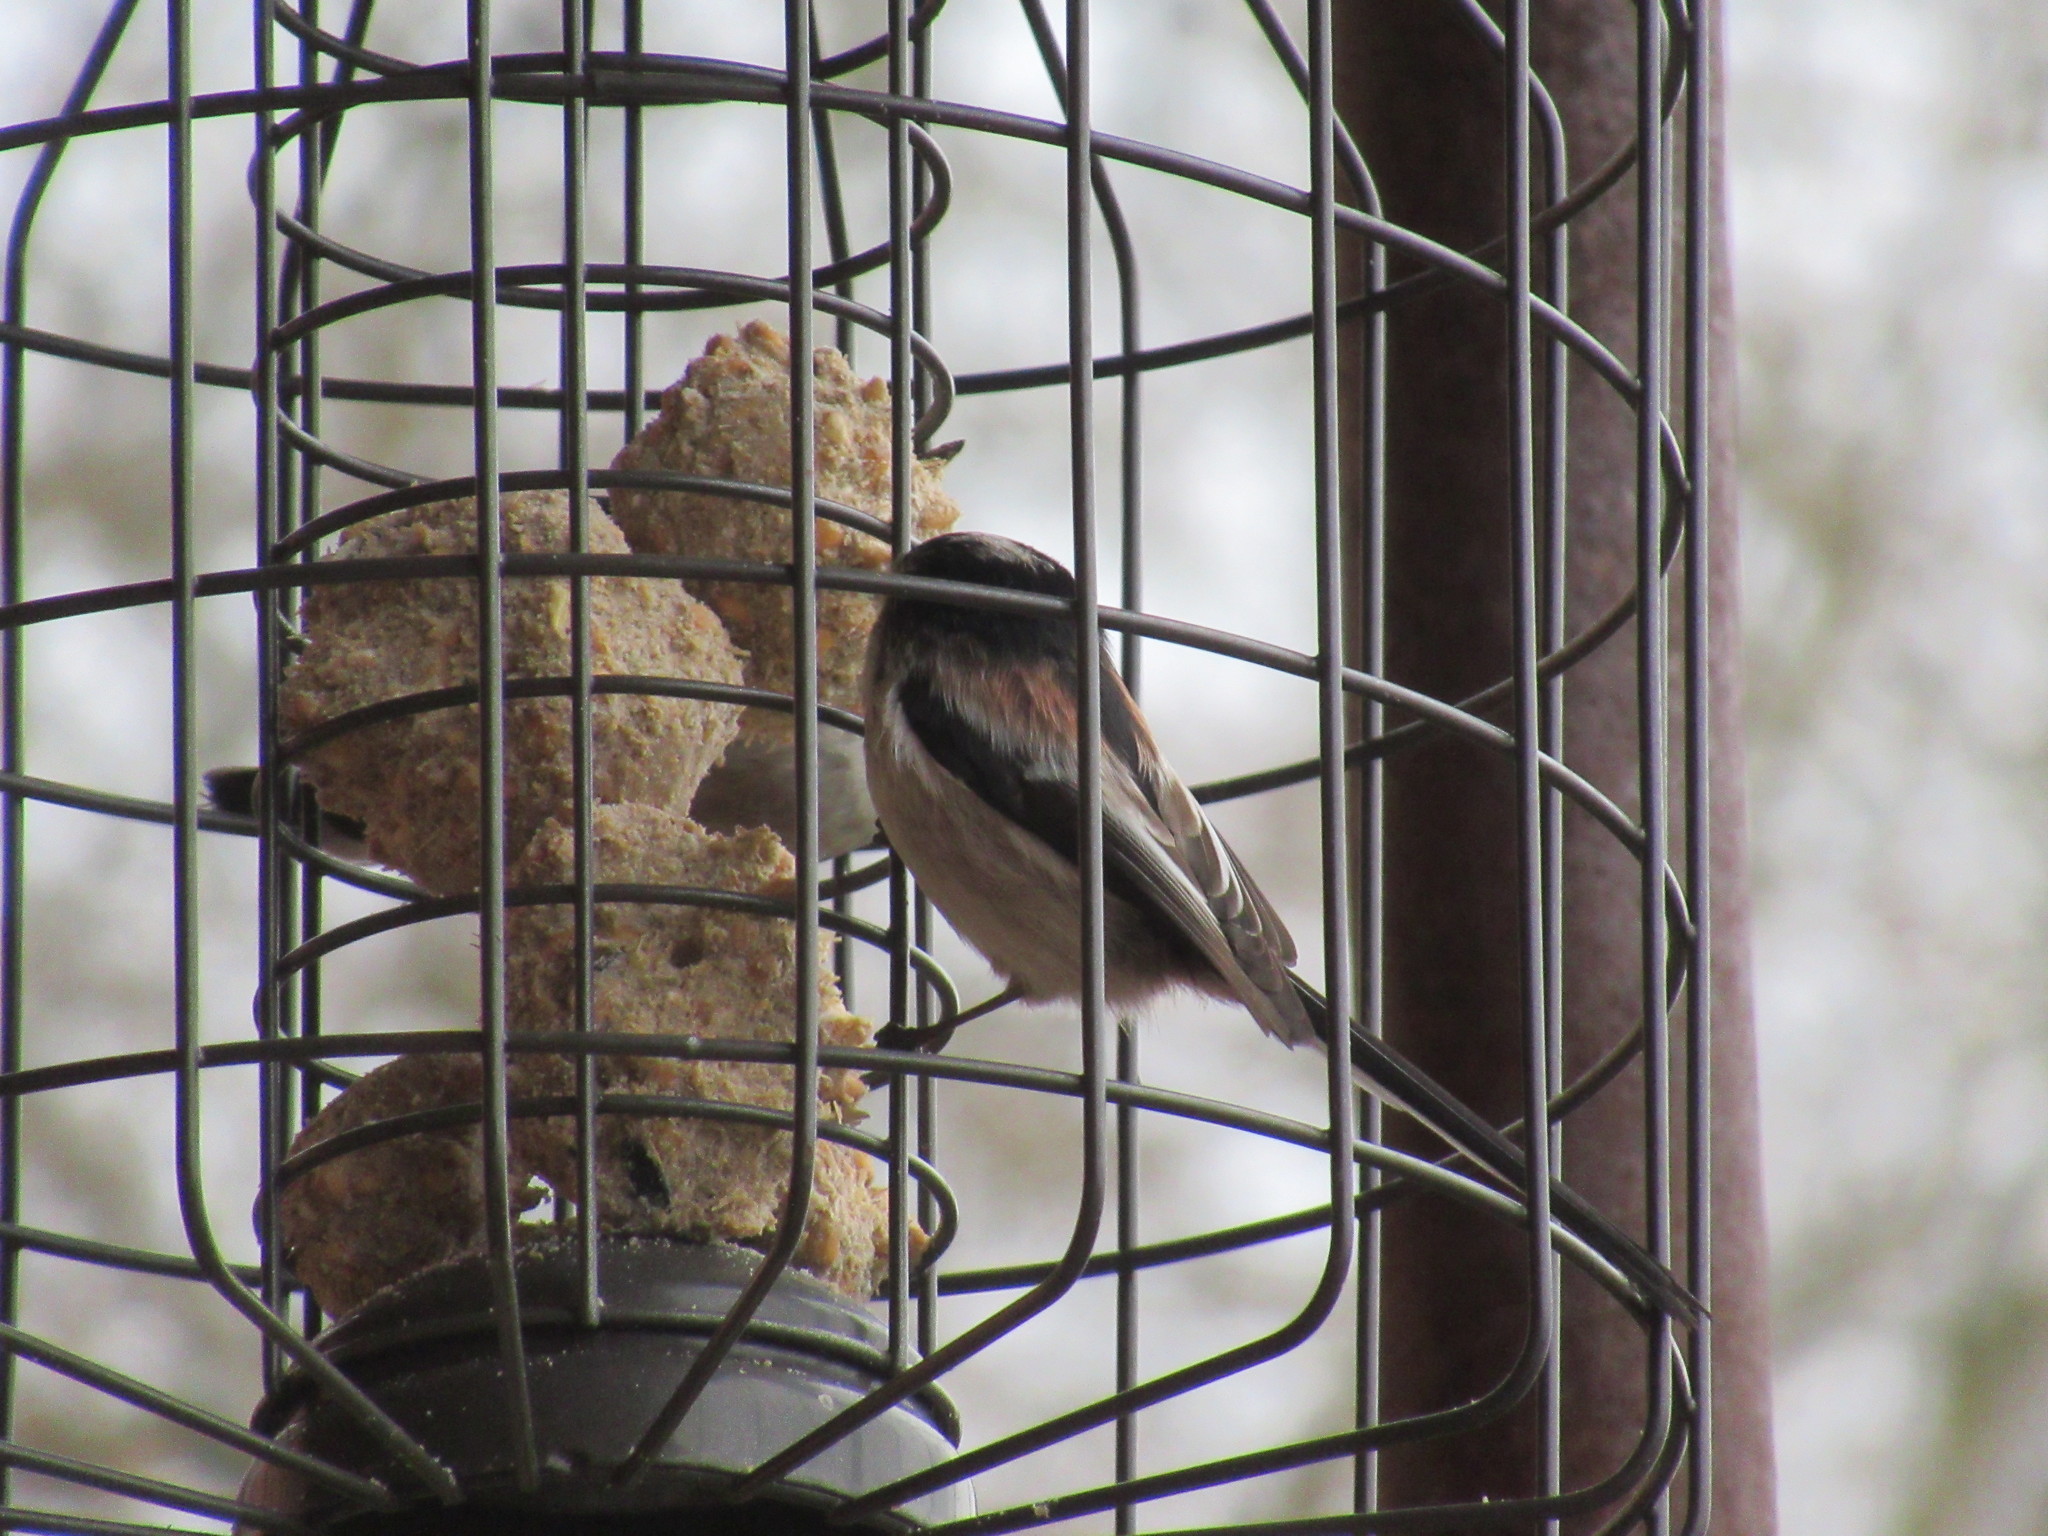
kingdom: Animalia
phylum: Chordata
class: Aves
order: Passeriformes
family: Aegithalidae
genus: Aegithalos
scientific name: Aegithalos caudatus
